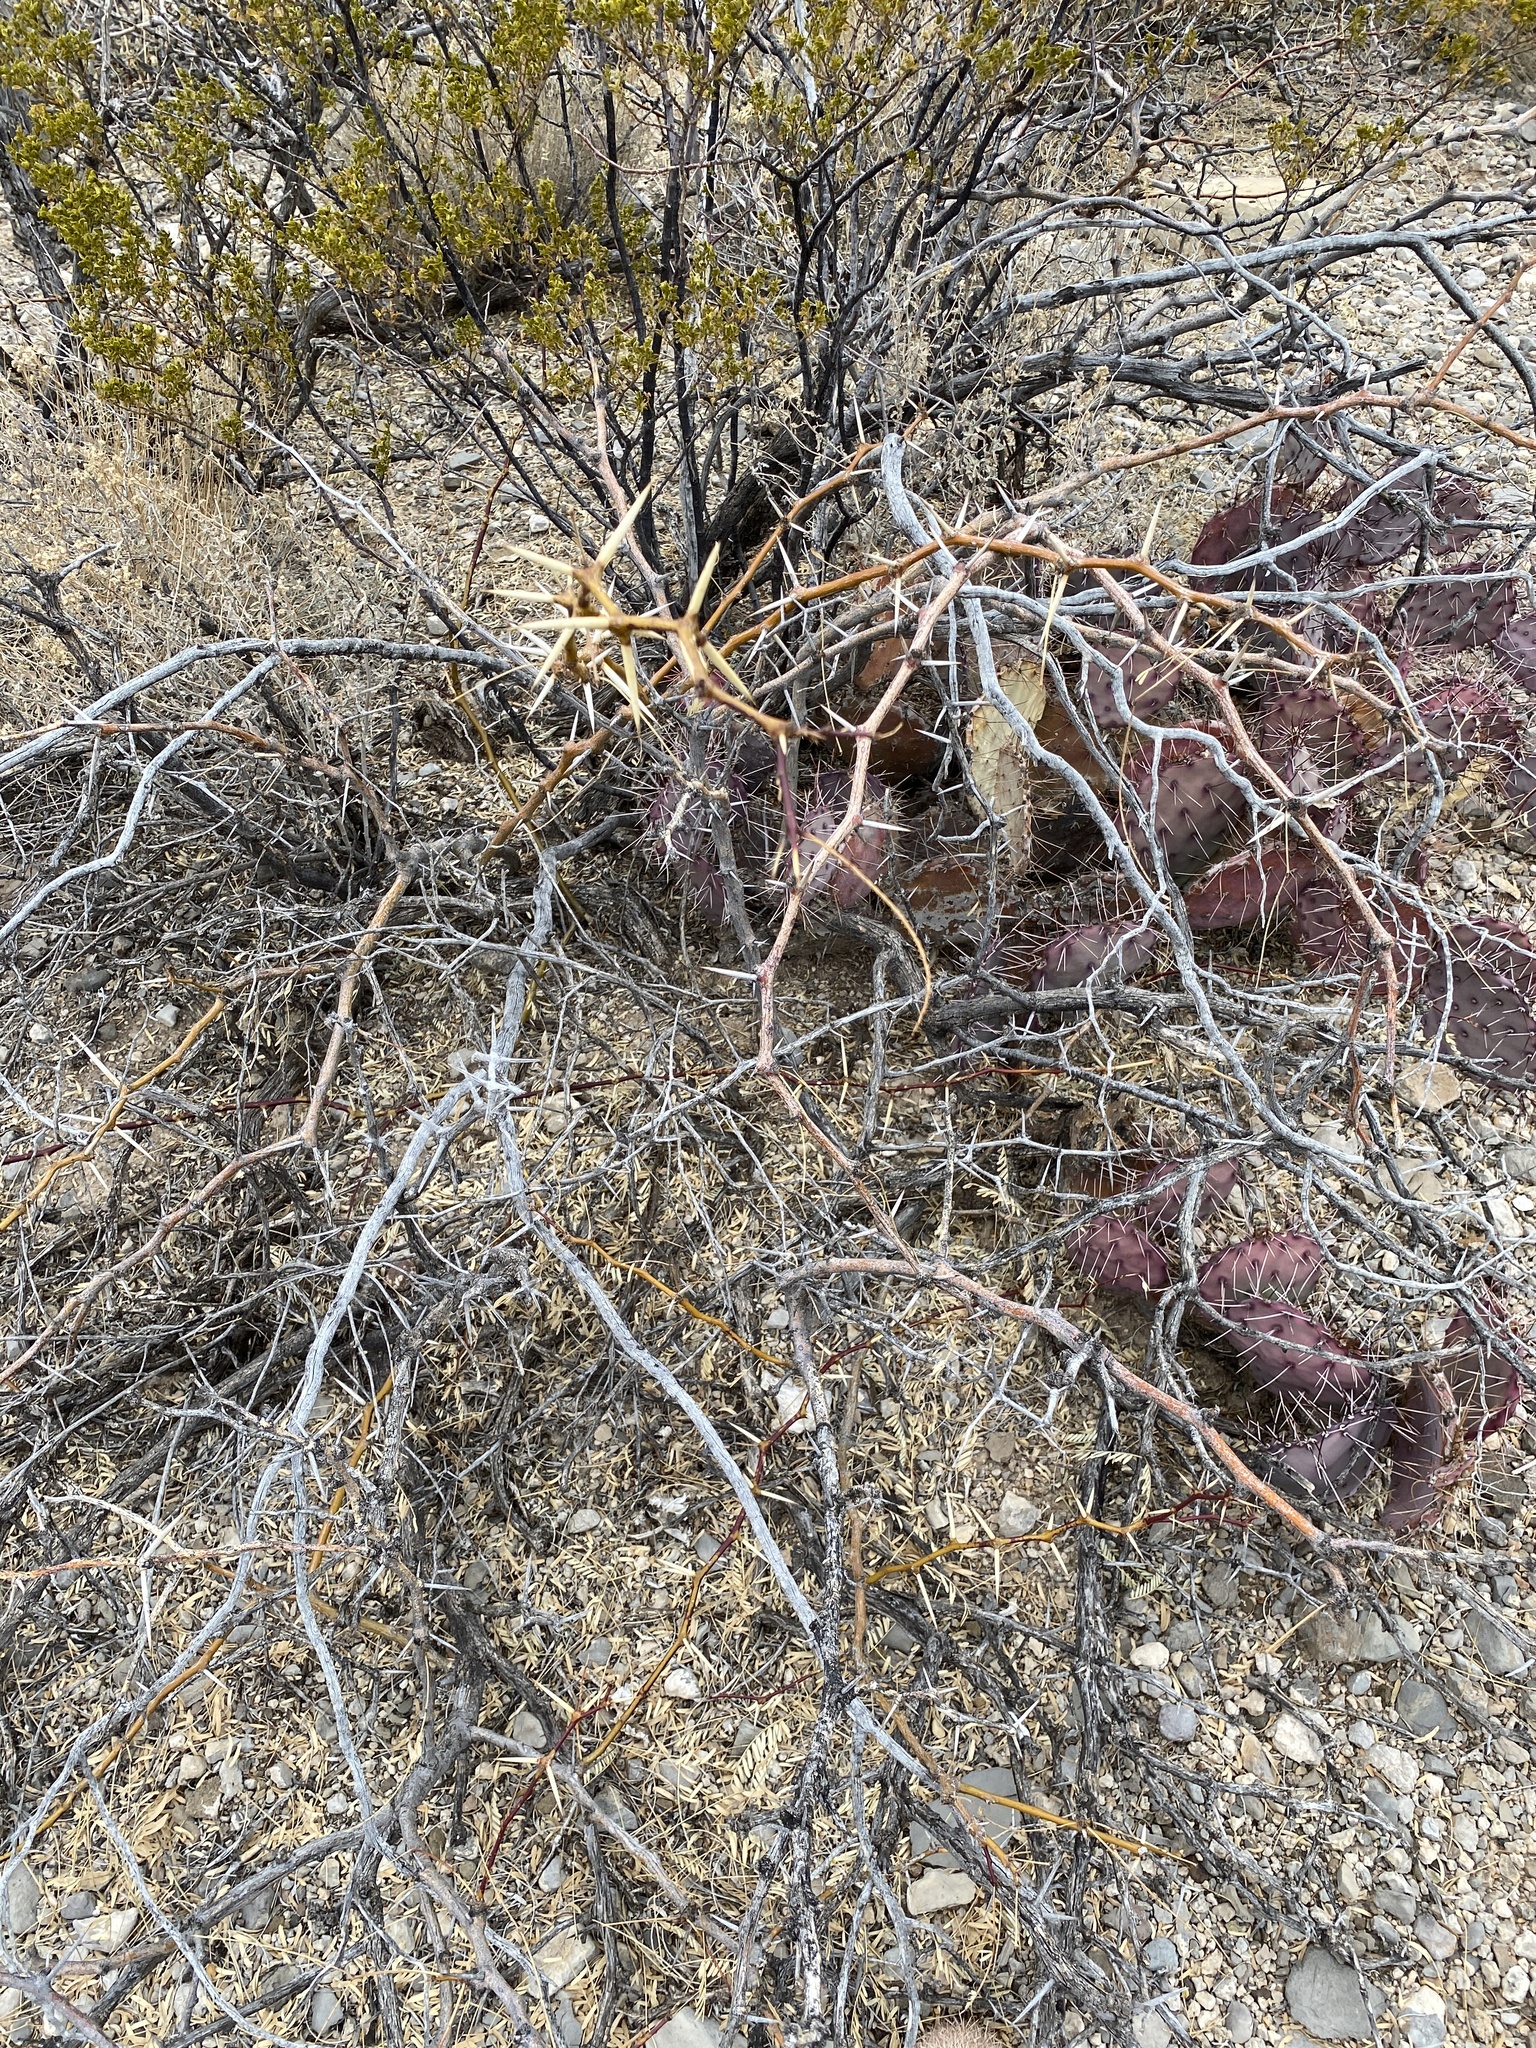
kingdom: Plantae
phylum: Tracheophyta
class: Magnoliopsida
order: Fabales
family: Fabaceae
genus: Prosopis
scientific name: Prosopis glandulosa
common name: Honey mesquite
